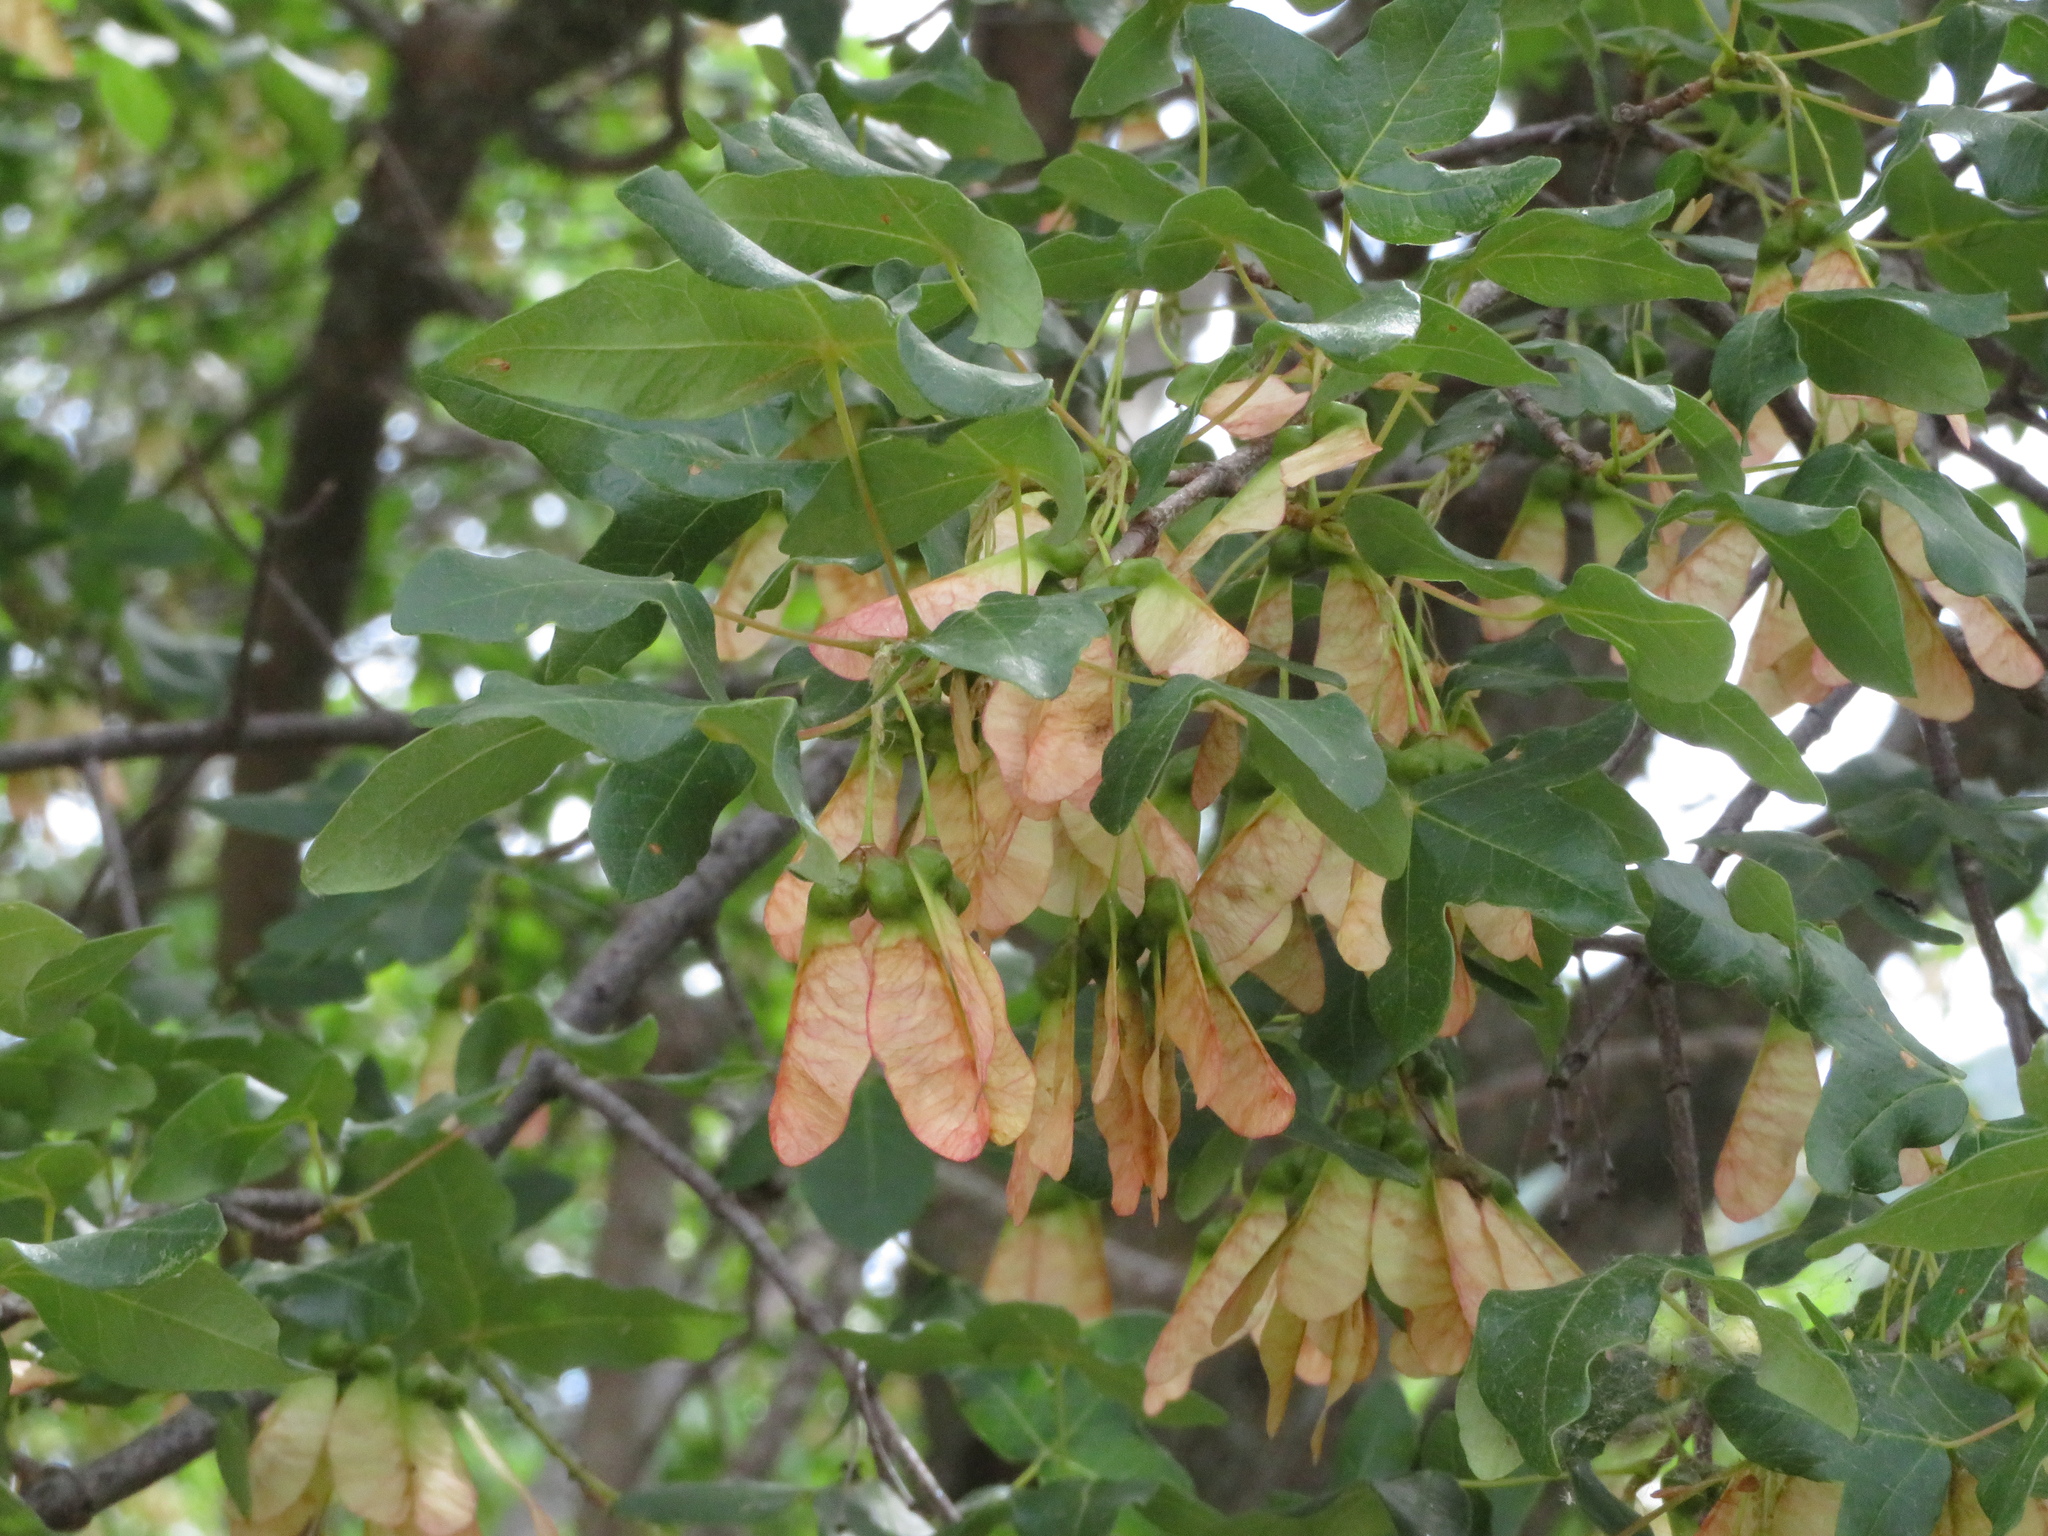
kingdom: Plantae
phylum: Tracheophyta
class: Magnoliopsida
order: Sapindales
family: Sapindaceae
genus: Acer
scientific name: Acer monspessulanum
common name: Montpellier maple
